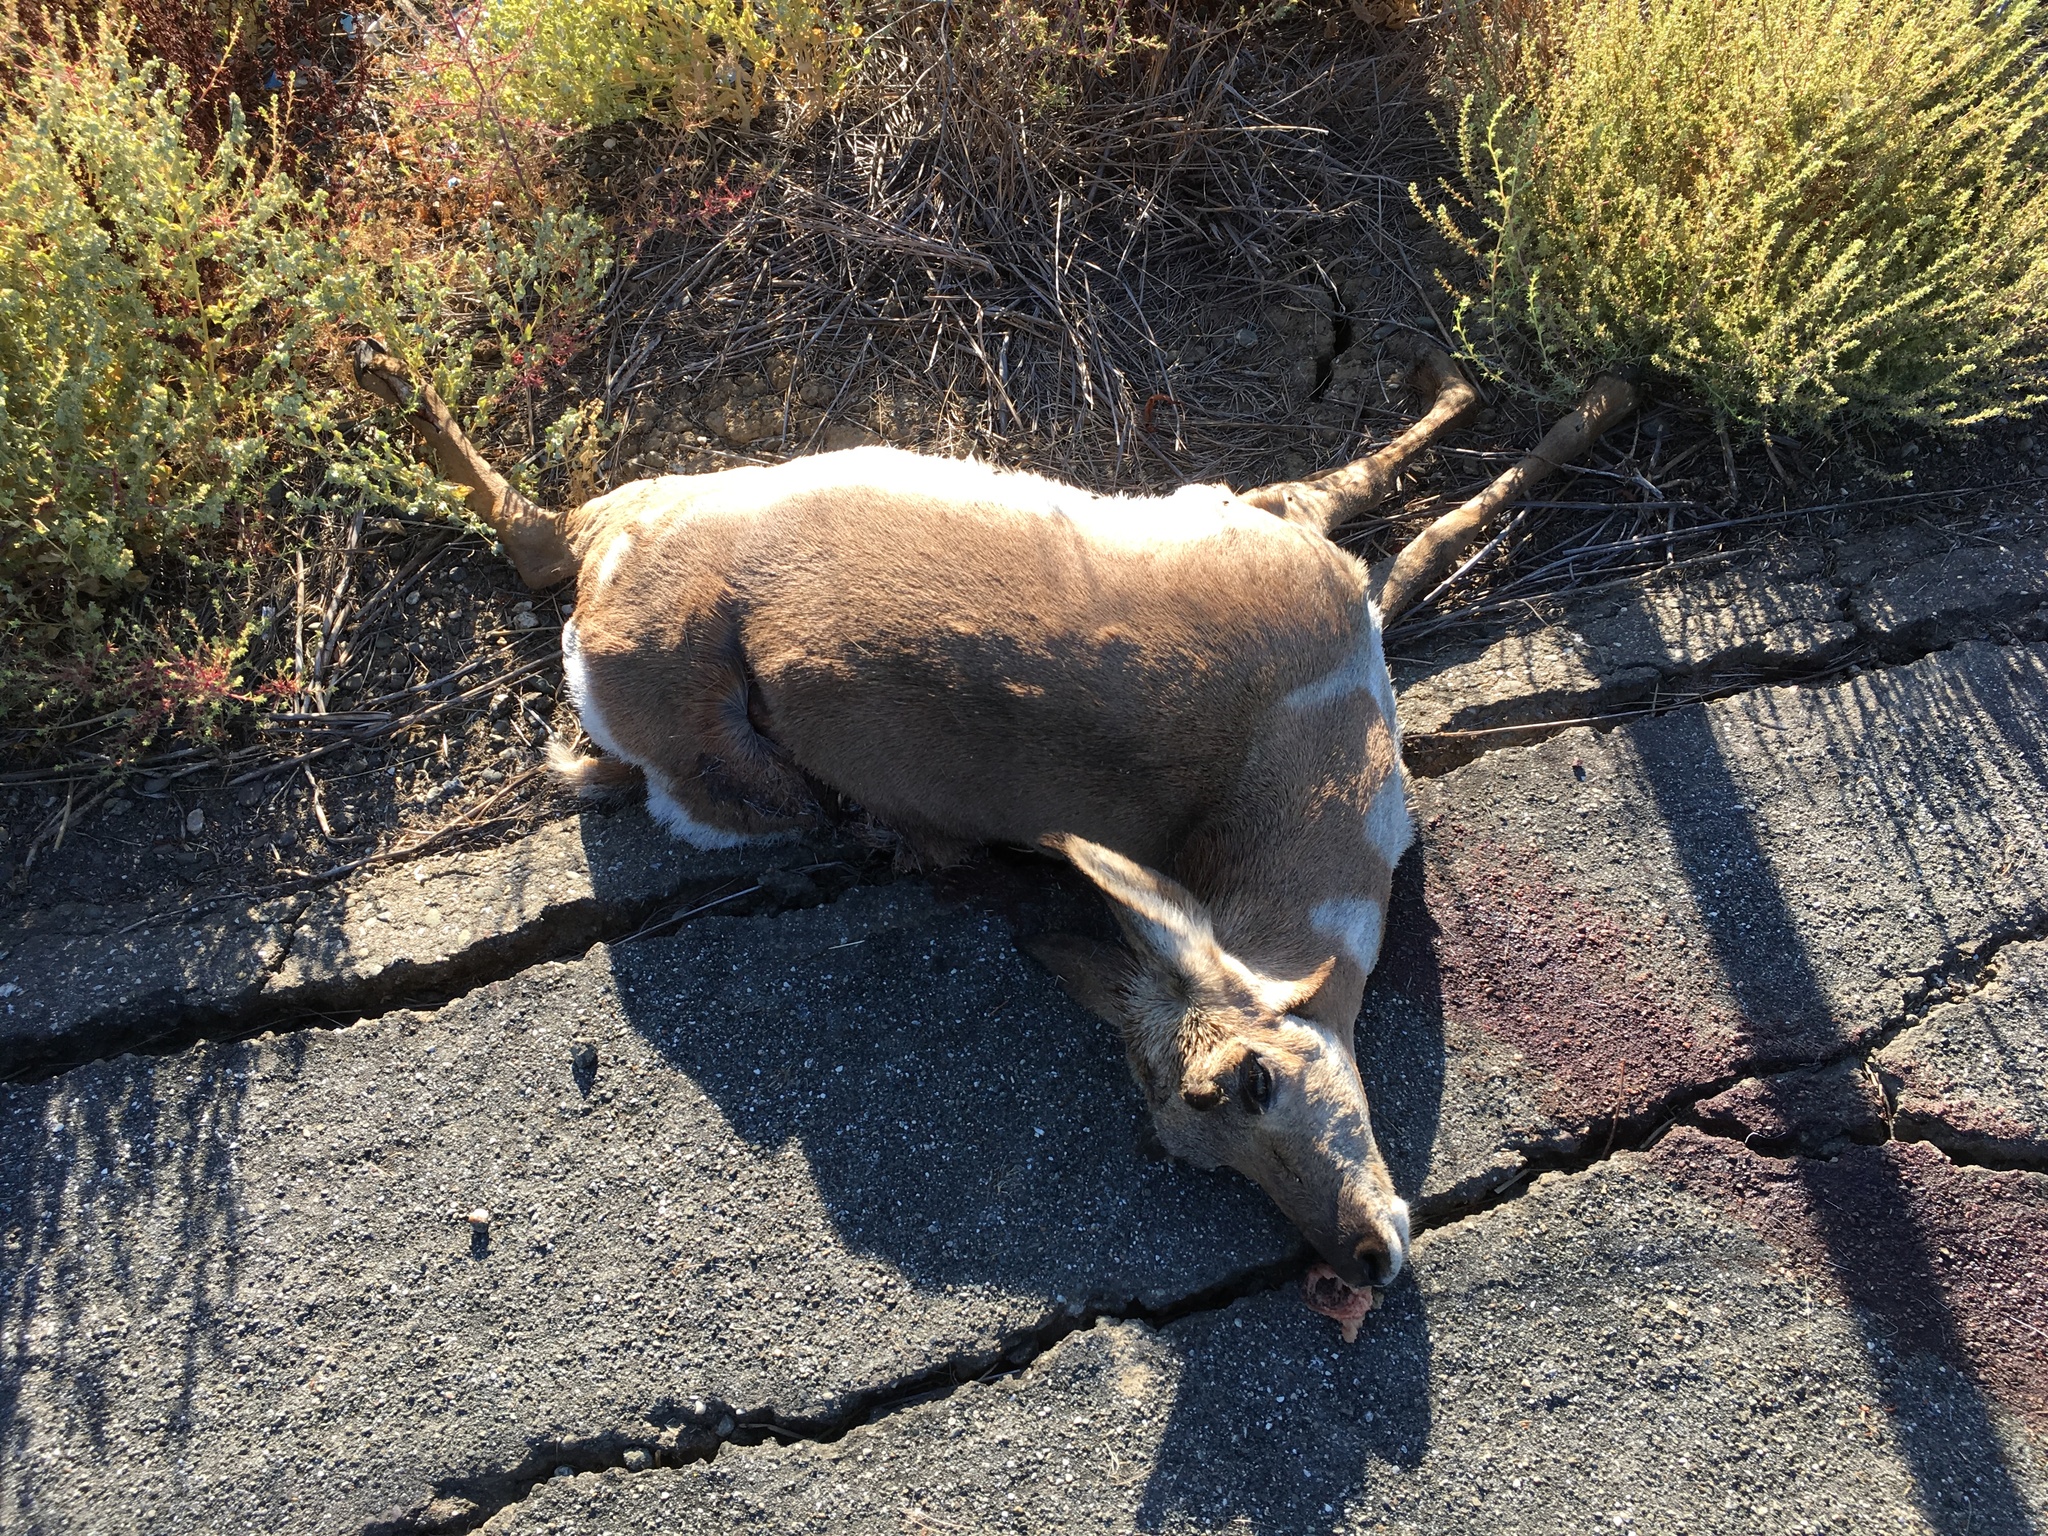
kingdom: Animalia
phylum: Chordata
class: Mammalia
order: Artiodactyla
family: Antilocapridae
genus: Antilocapra
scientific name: Antilocapra americana
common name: Pronghorn
